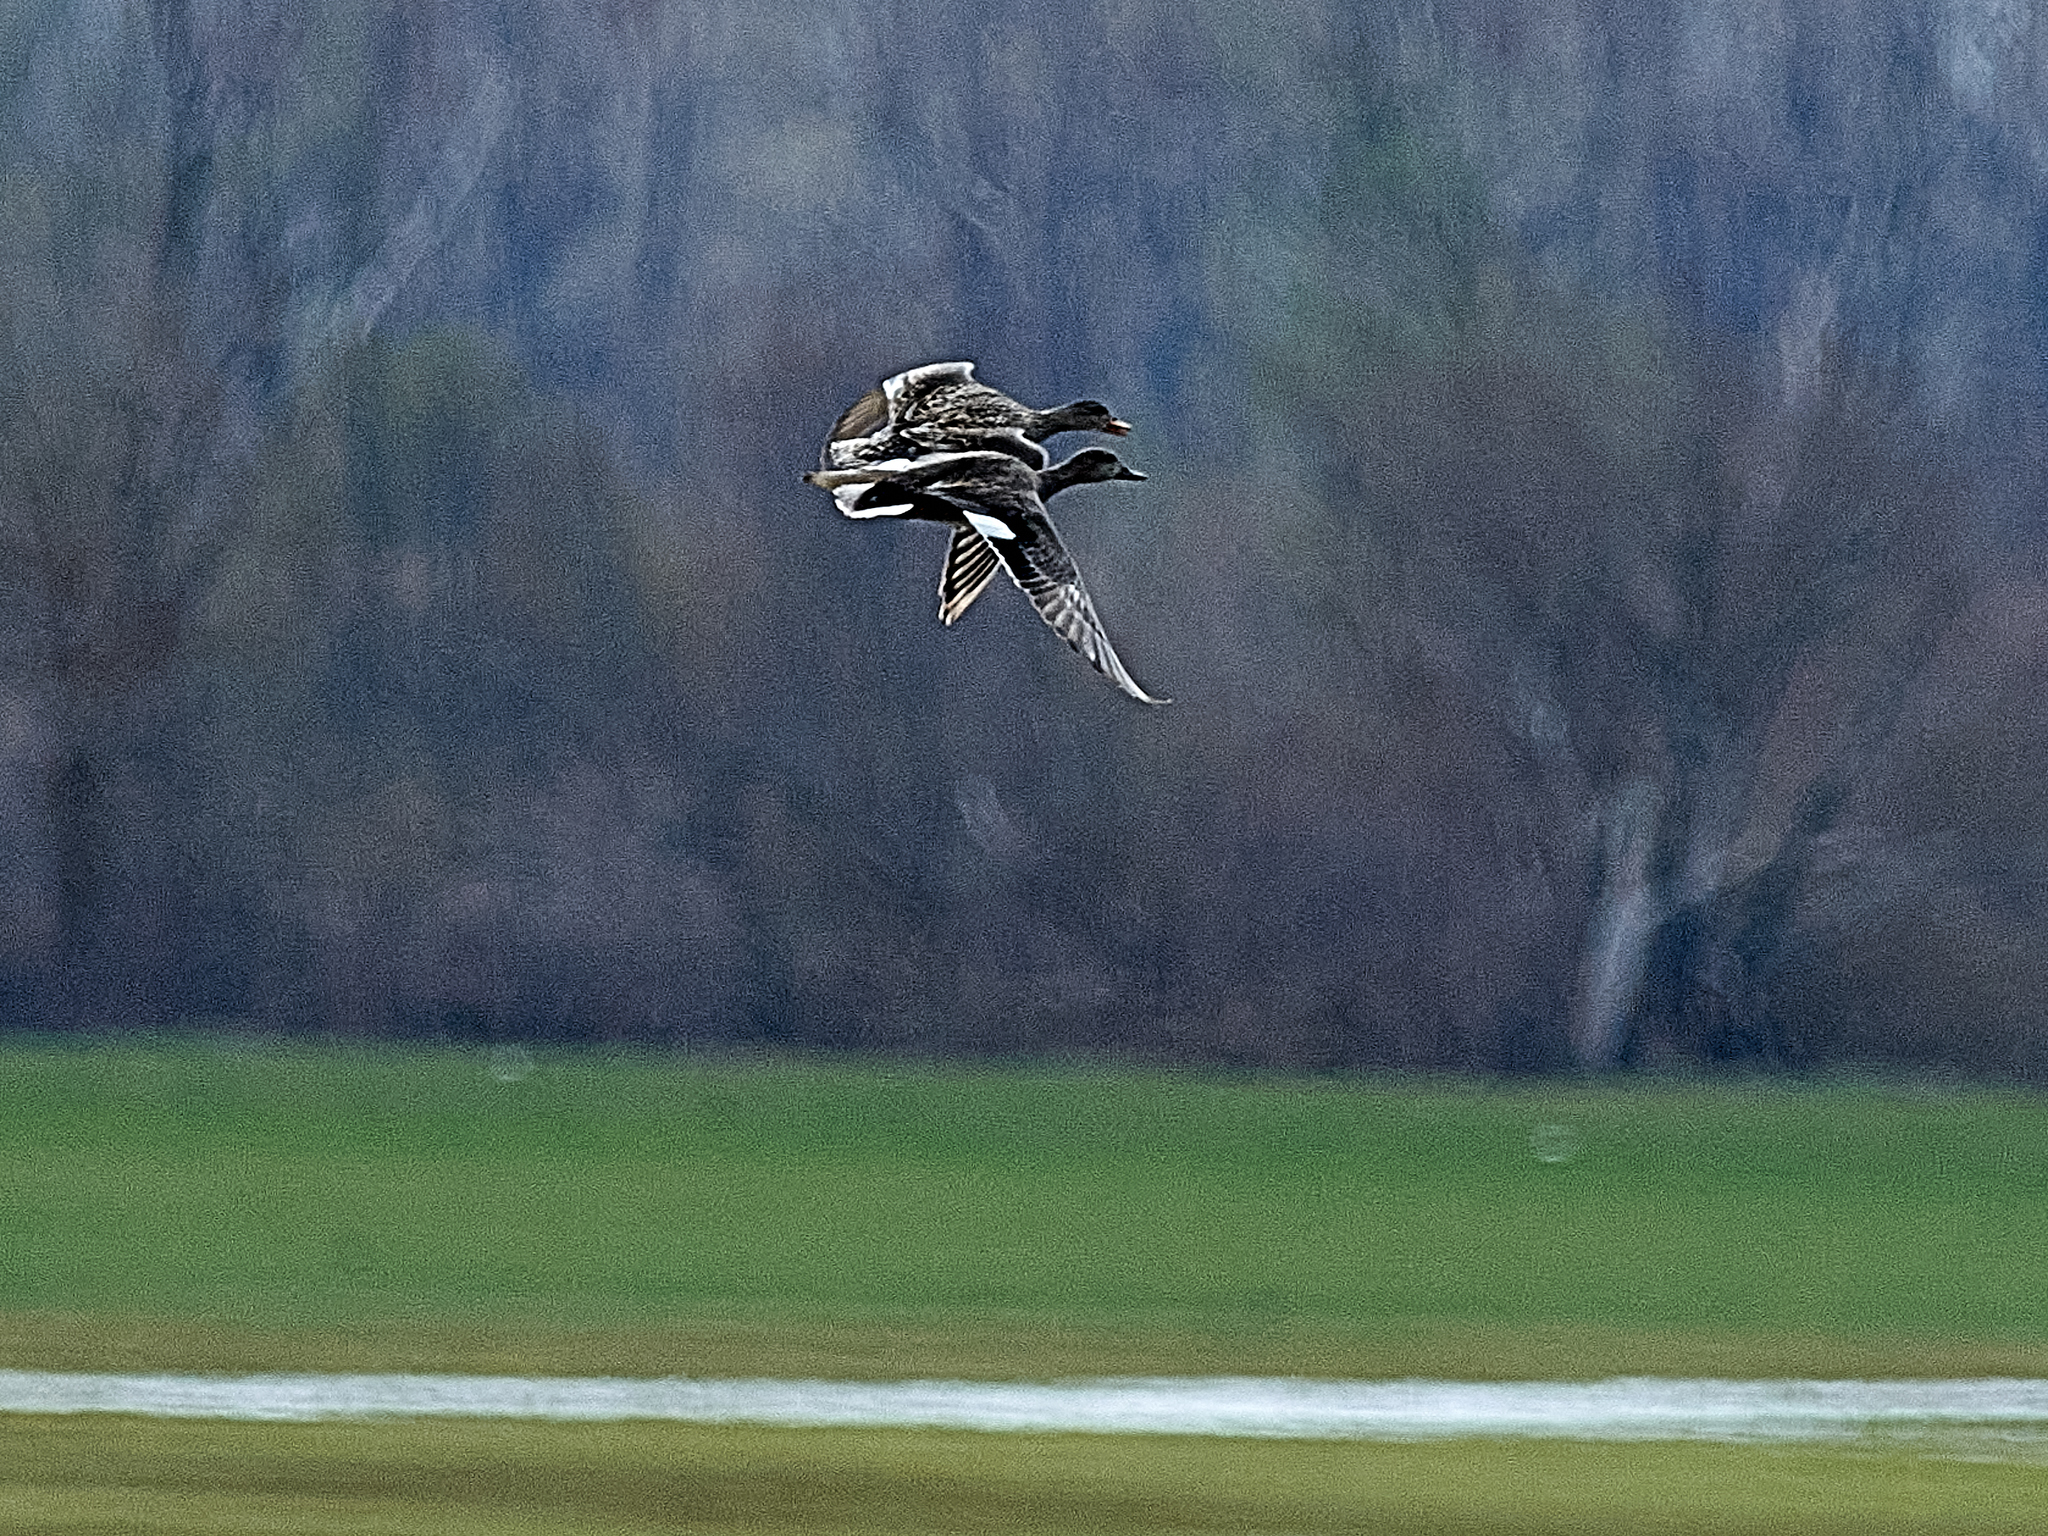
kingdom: Animalia
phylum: Chordata
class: Aves
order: Anseriformes
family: Anatidae
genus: Mareca
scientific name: Mareca strepera
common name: Gadwall
